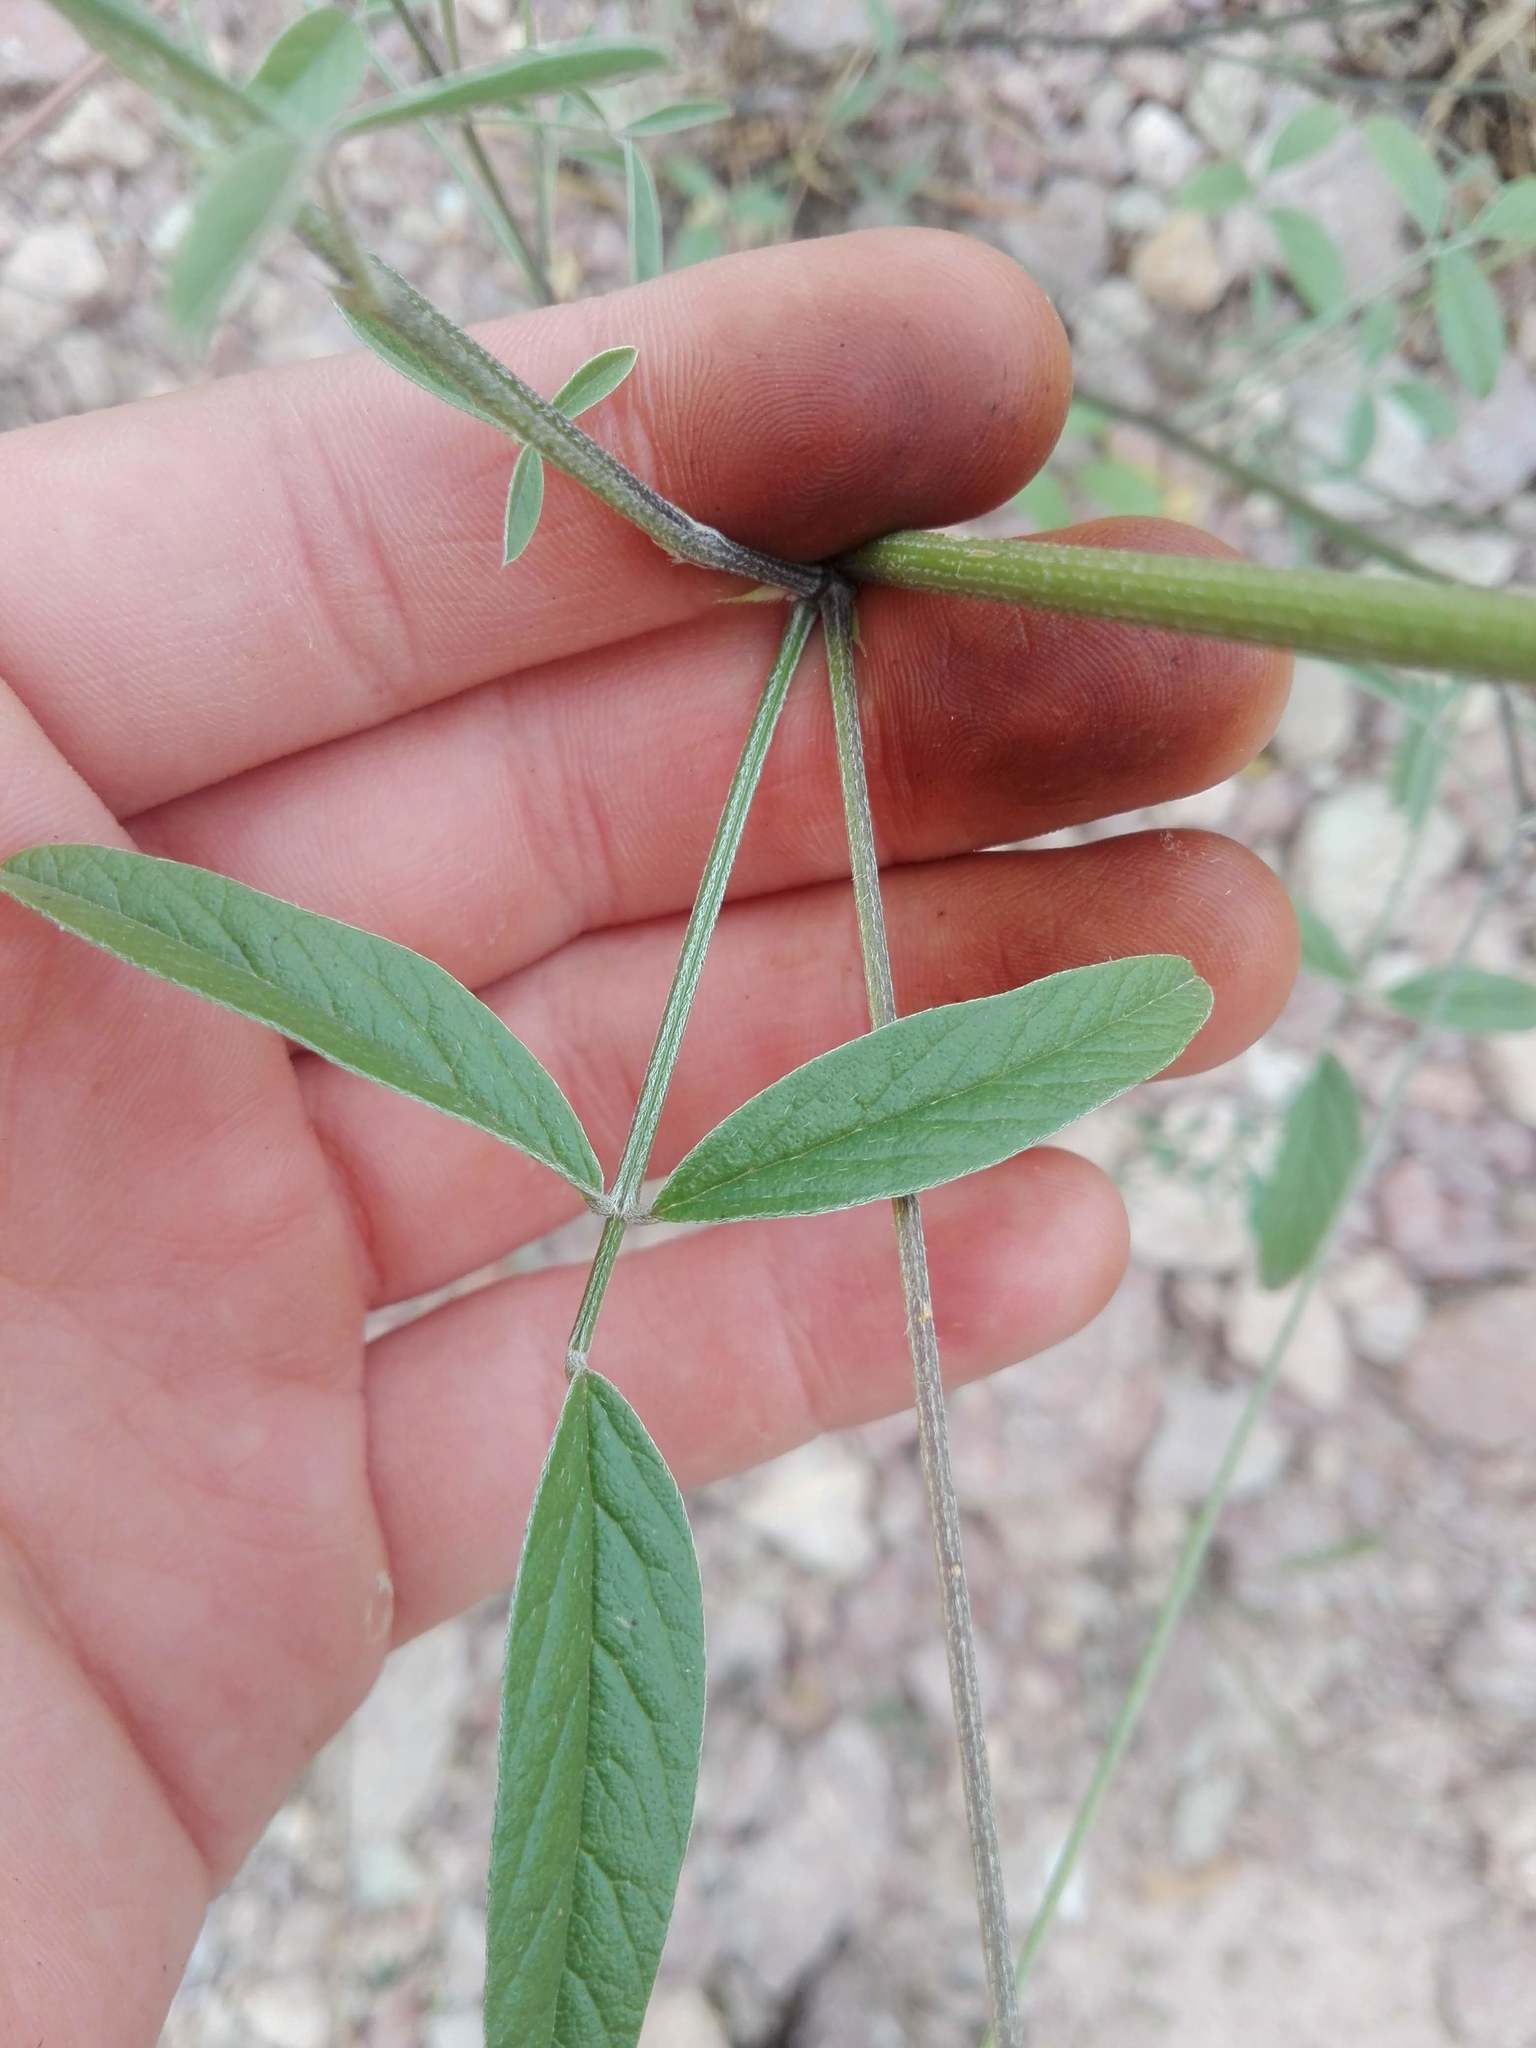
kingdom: Plantae
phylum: Tracheophyta
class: Magnoliopsida
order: Fabales
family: Fabaceae
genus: Bituminaria
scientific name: Bituminaria bituminosa
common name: Arabian pea
